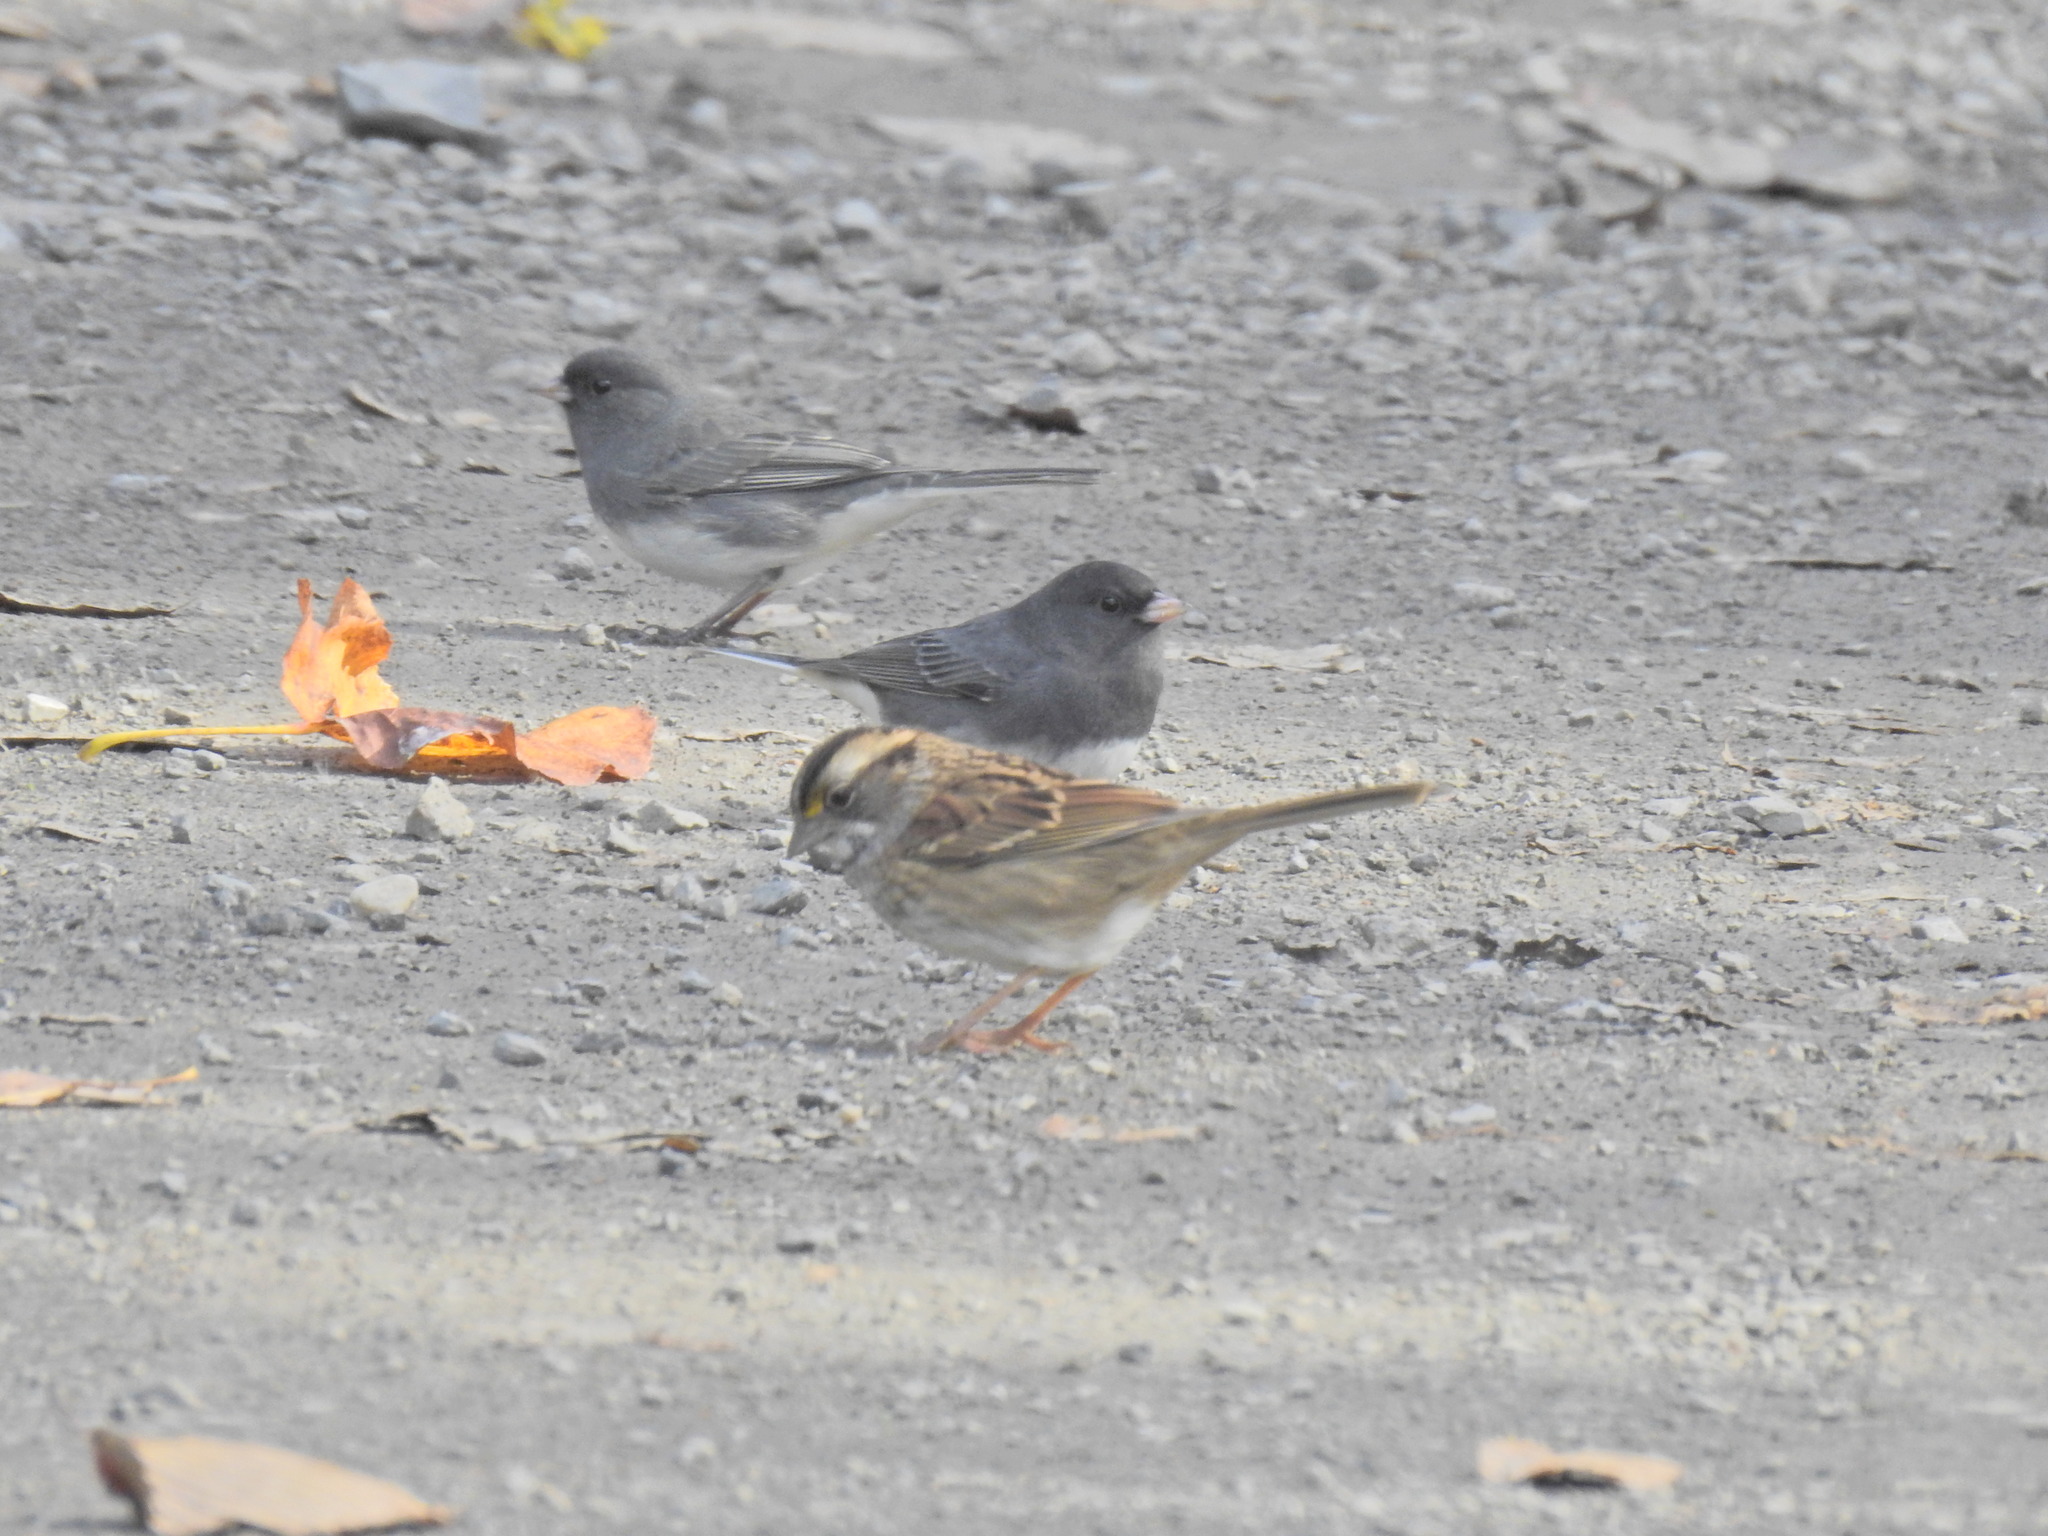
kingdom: Animalia
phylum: Chordata
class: Aves
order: Passeriformes
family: Passerellidae
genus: Zonotrichia
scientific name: Zonotrichia albicollis
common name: White-throated sparrow
